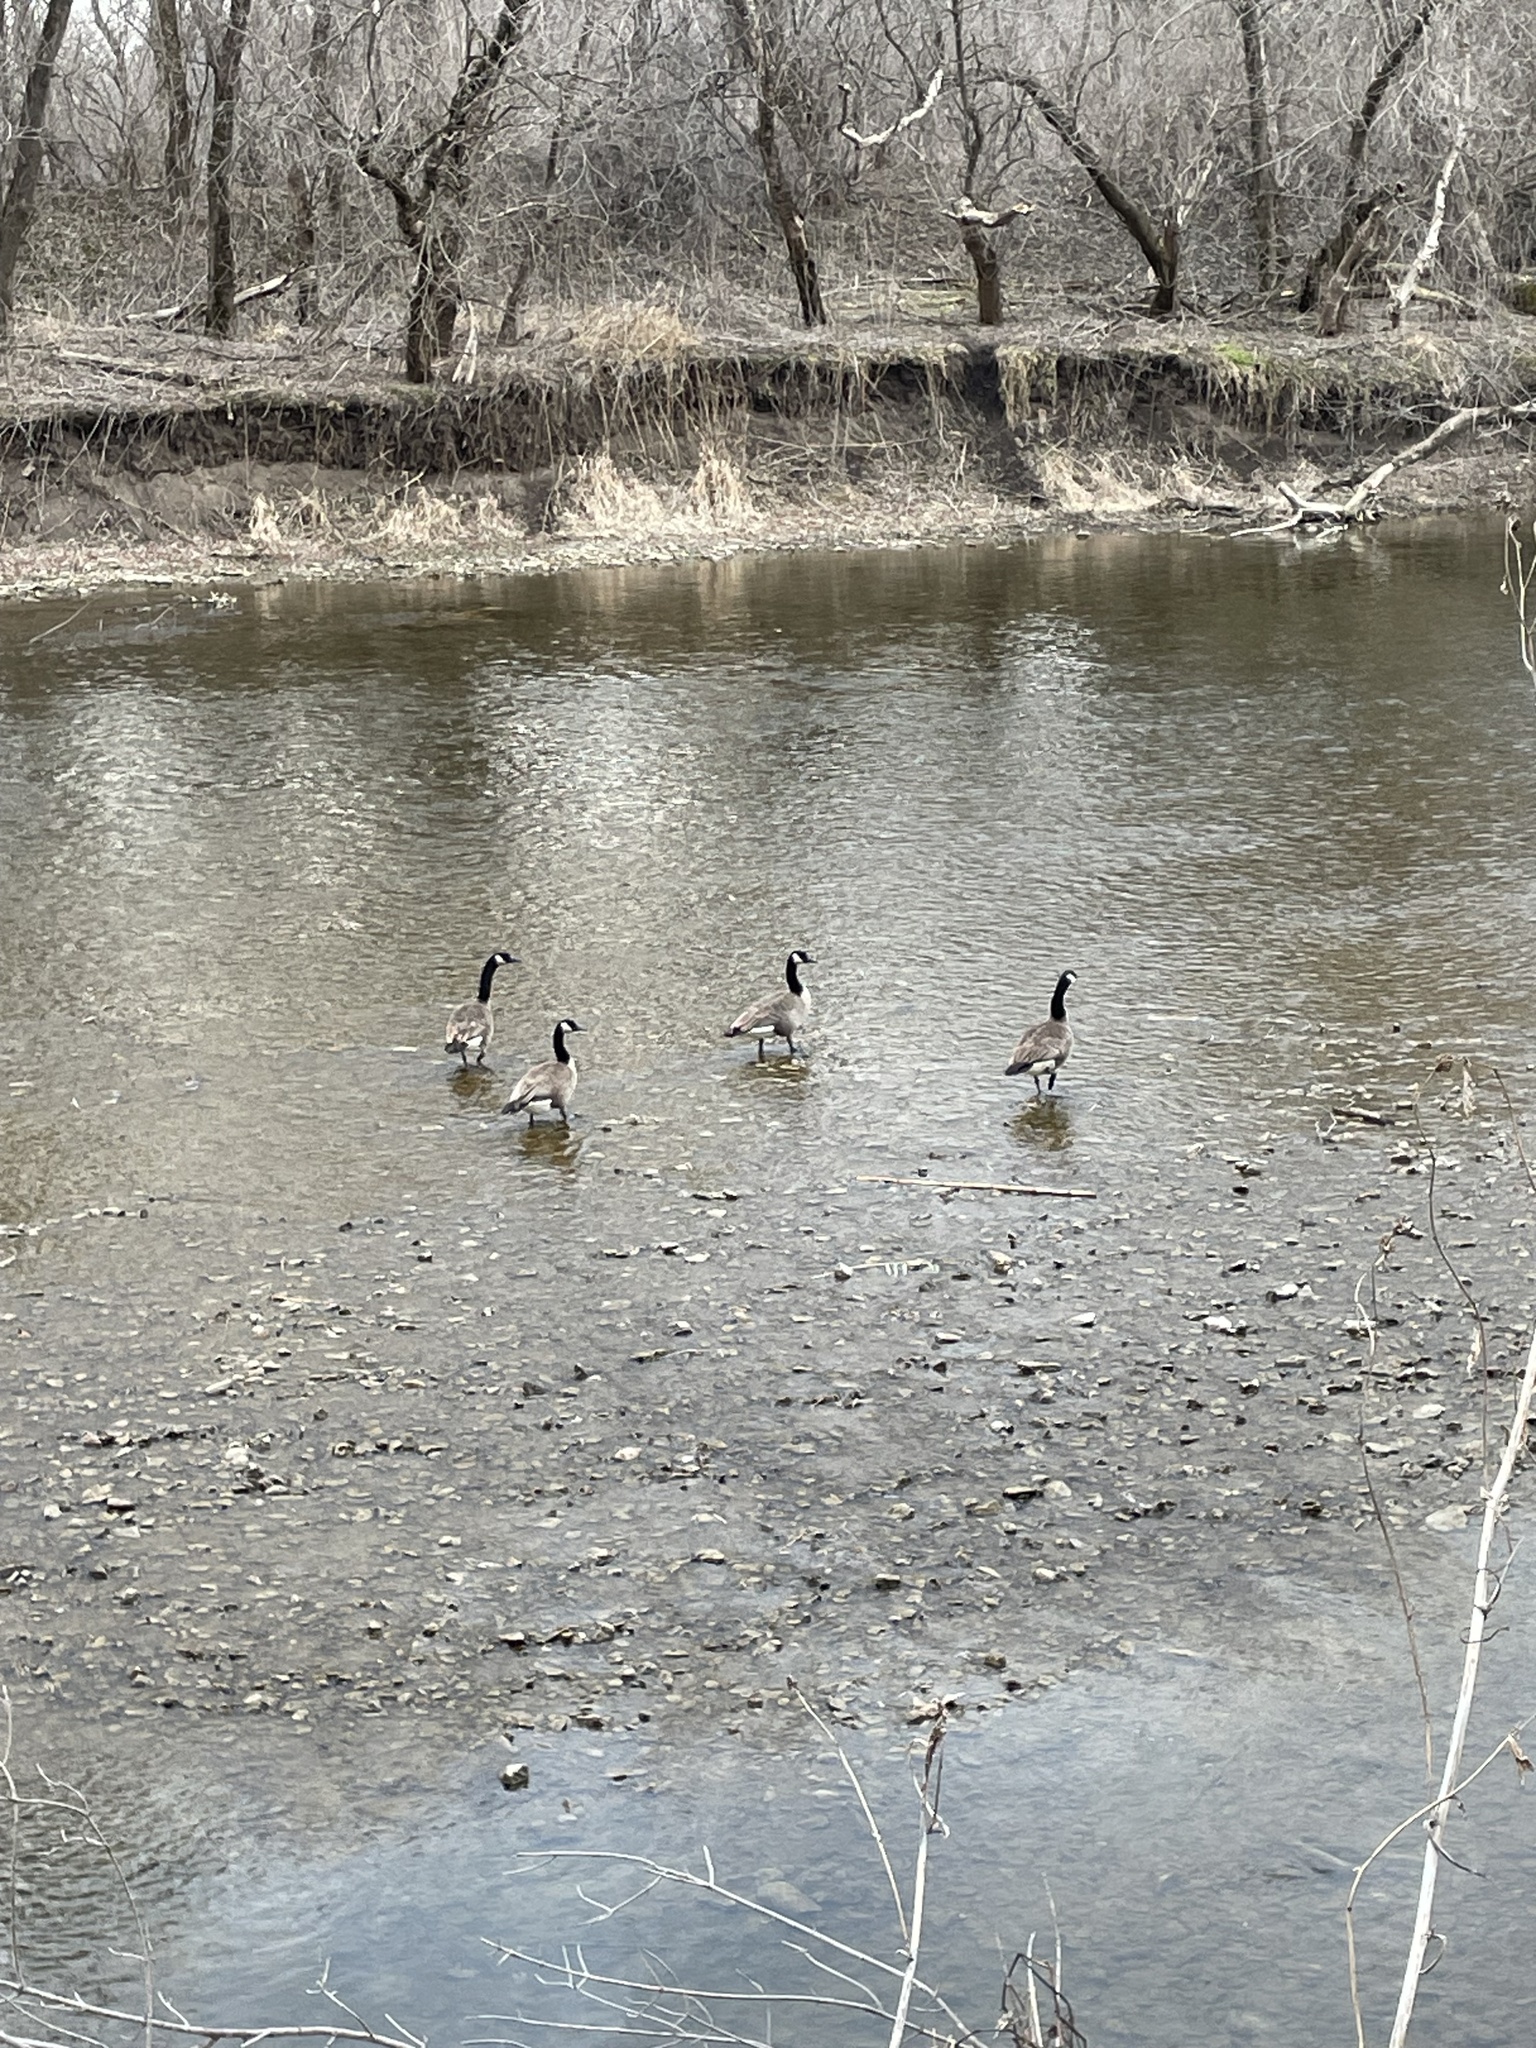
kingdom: Animalia
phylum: Chordata
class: Aves
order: Anseriformes
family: Anatidae
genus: Branta
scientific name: Branta canadensis
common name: Canada goose
